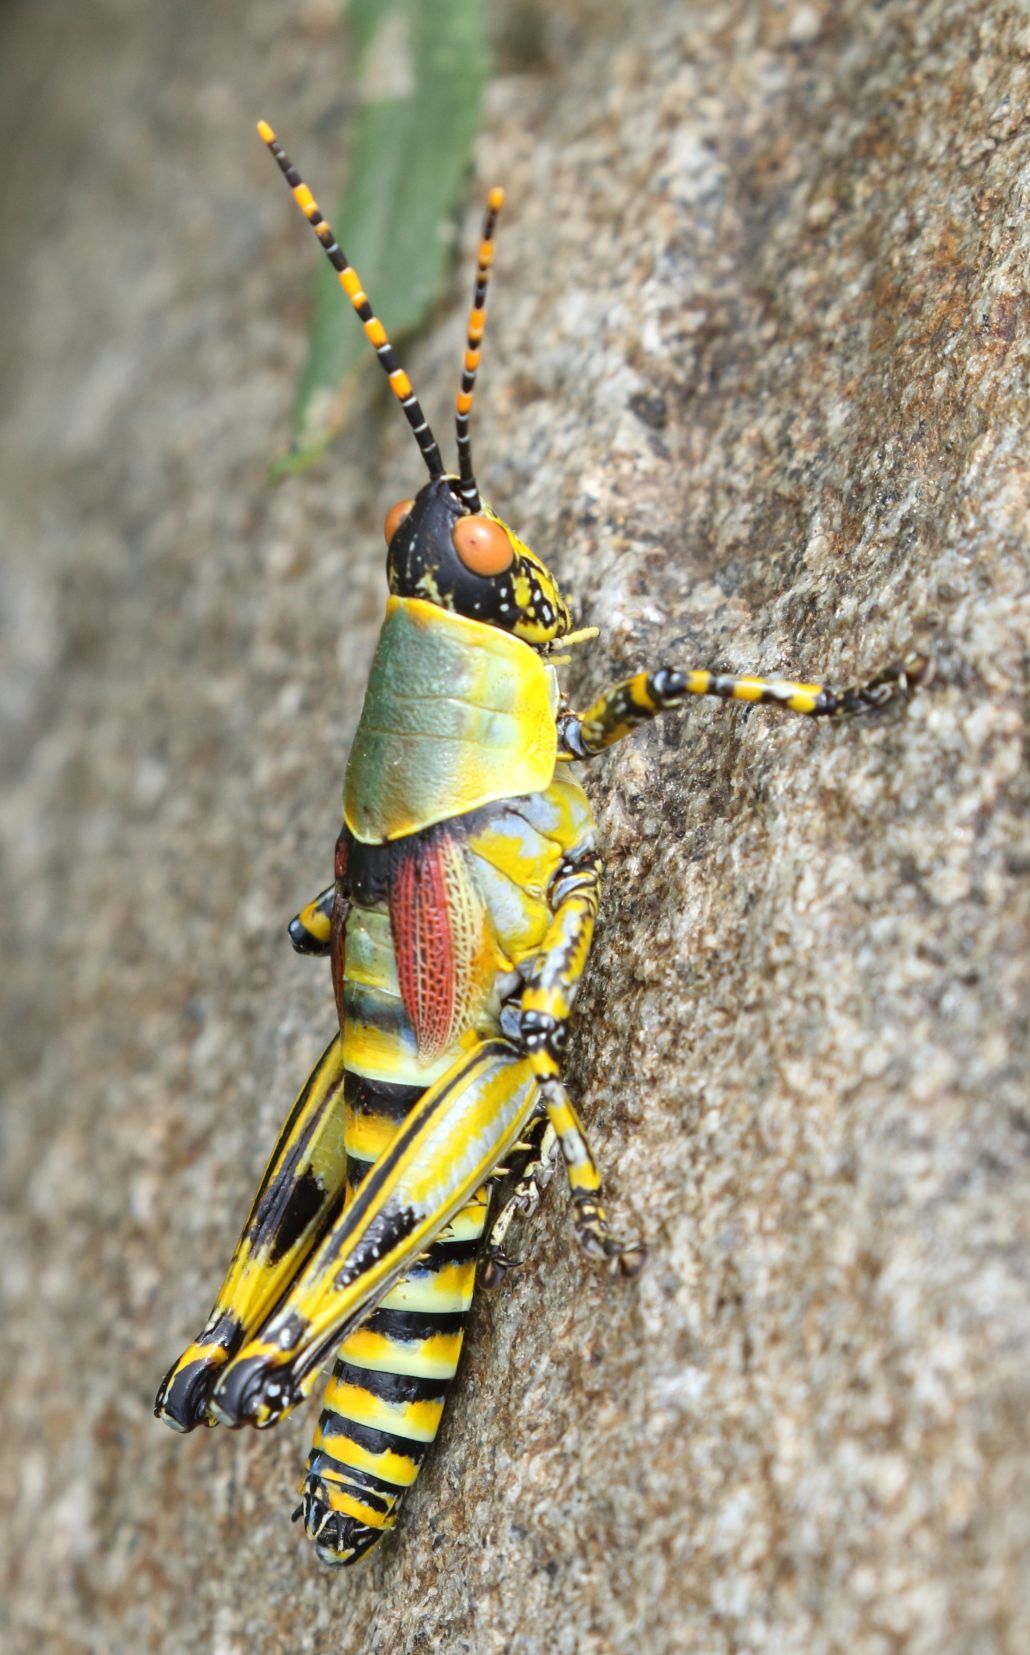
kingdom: Animalia
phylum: Arthropoda
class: Insecta
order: Orthoptera
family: Pyrgomorphidae
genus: Zonocerus
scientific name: Zonocerus elegans
